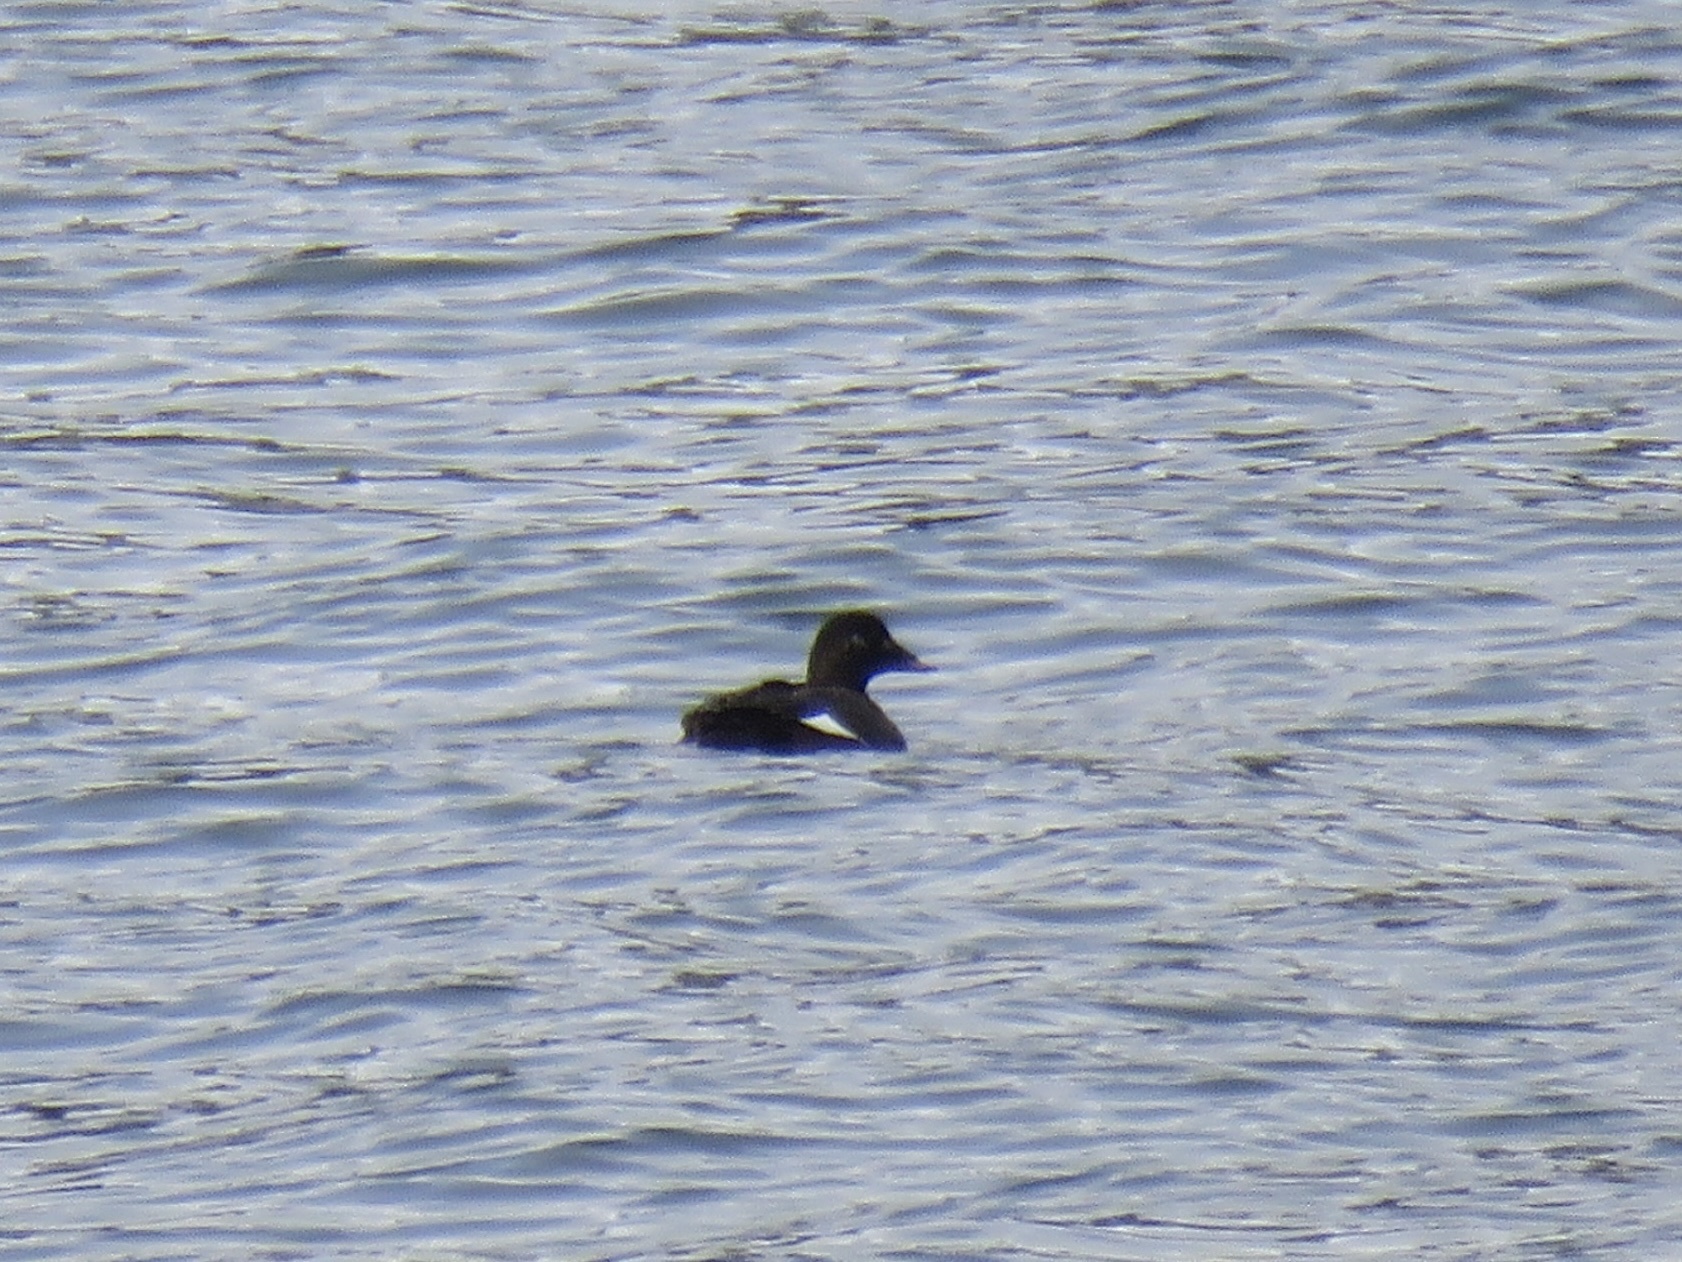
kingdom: Animalia
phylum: Chordata
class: Aves
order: Anseriformes
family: Anatidae
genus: Melanitta
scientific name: Melanitta deglandi
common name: White-winged scoter
